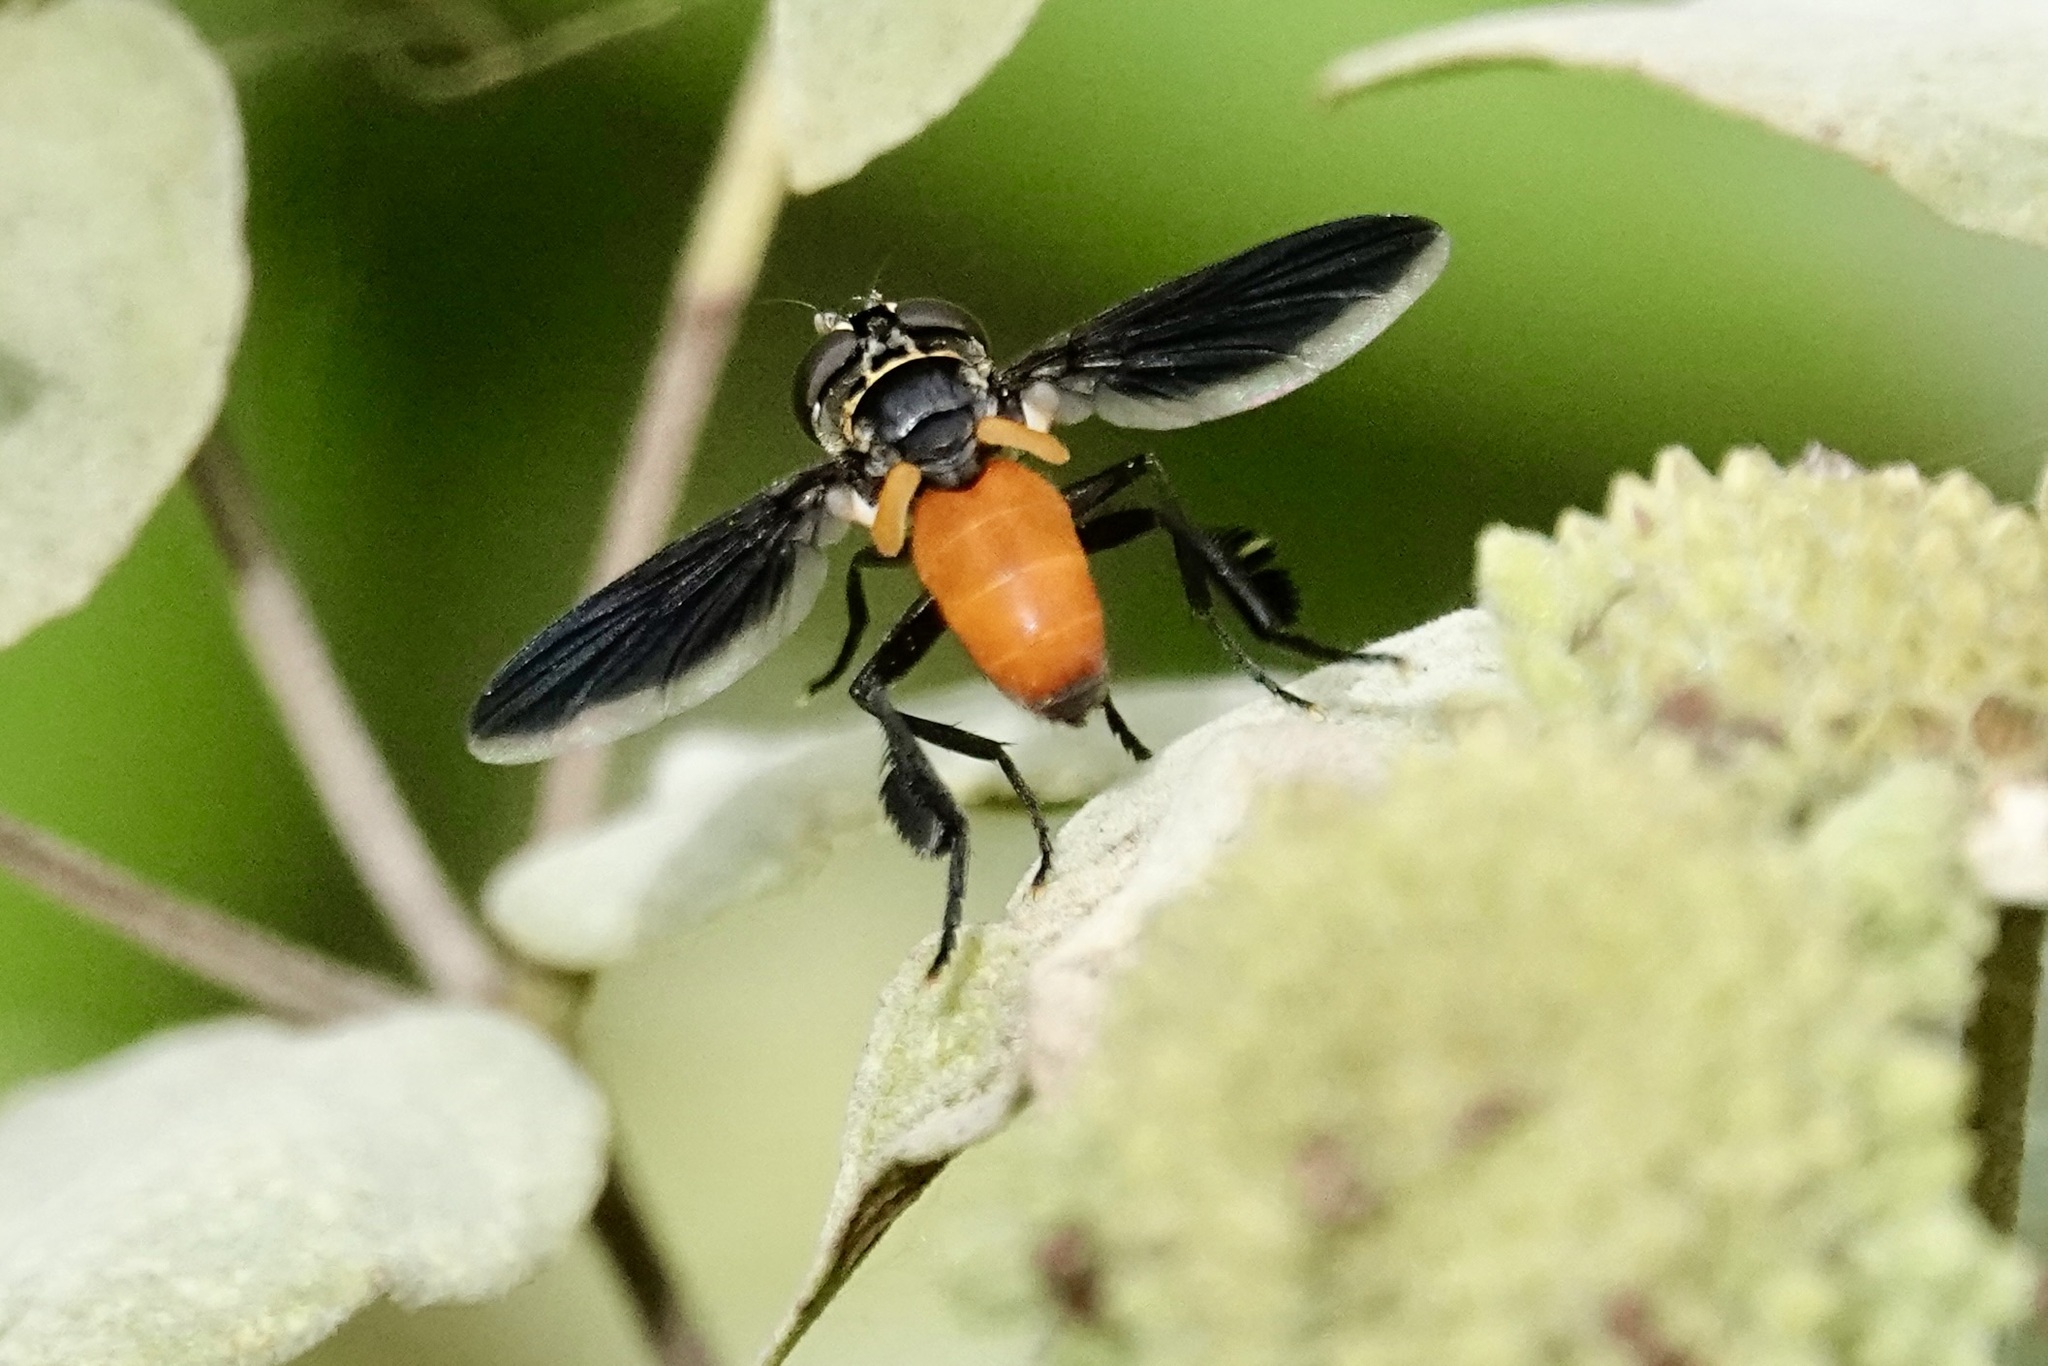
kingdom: Animalia
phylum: Arthropoda
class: Insecta
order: Diptera
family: Tachinidae
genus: Trichopoda
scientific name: Trichopoda pennipes
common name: Tachinid fly
